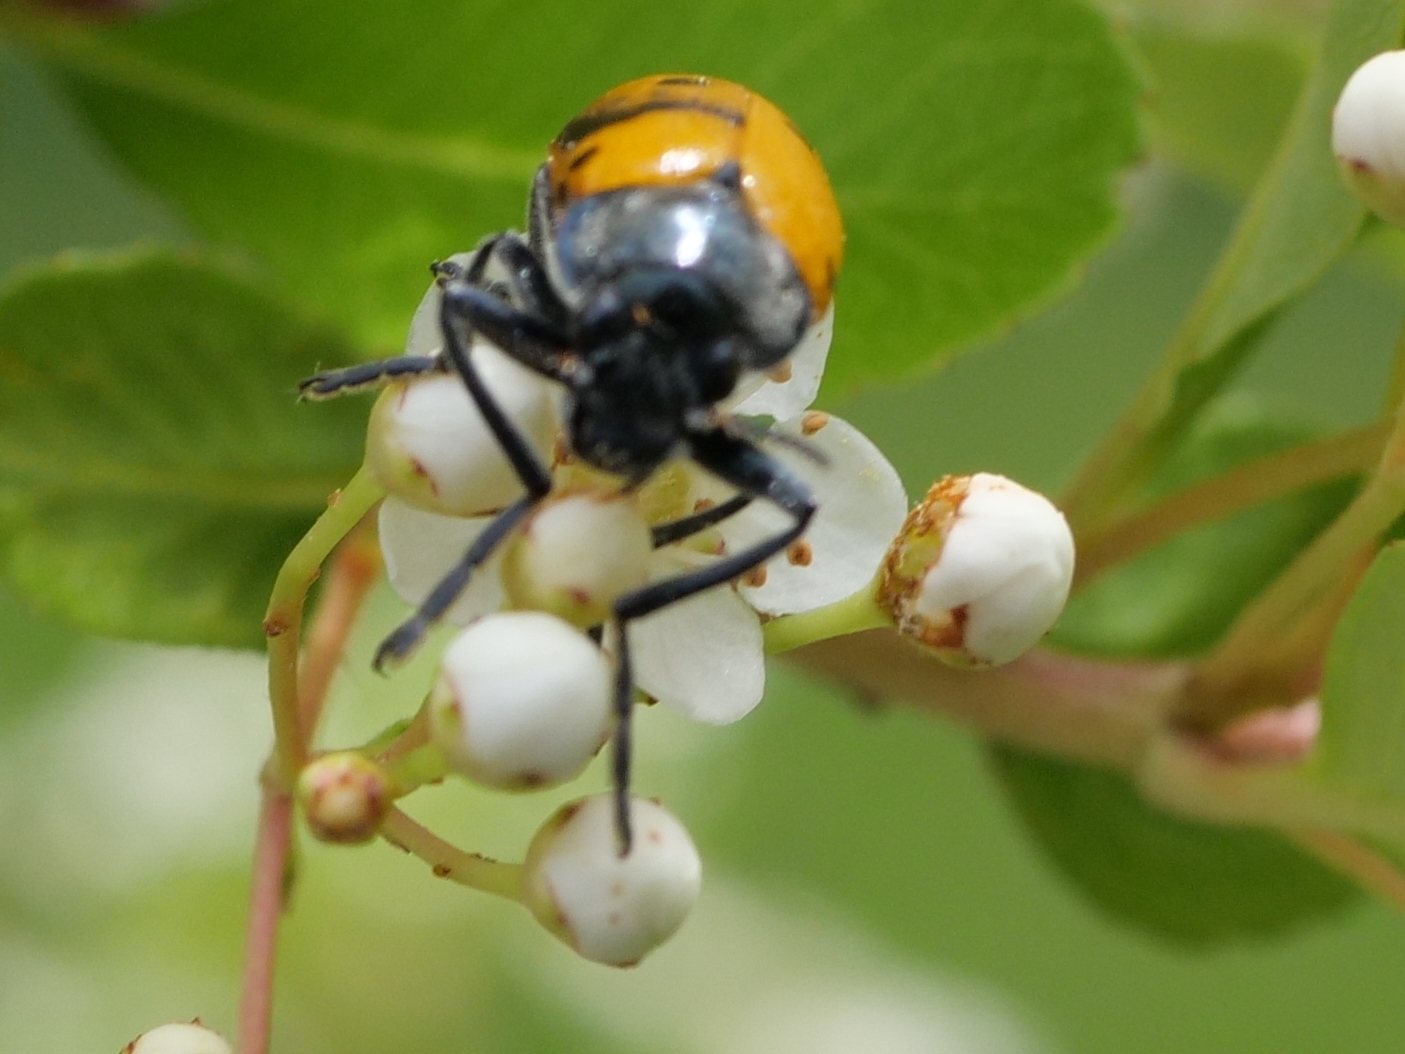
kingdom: Animalia
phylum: Arthropoda
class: Insecta
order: Coleoptera
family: Chrysomelidae
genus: Lachnaia
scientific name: Lachnaia italica
